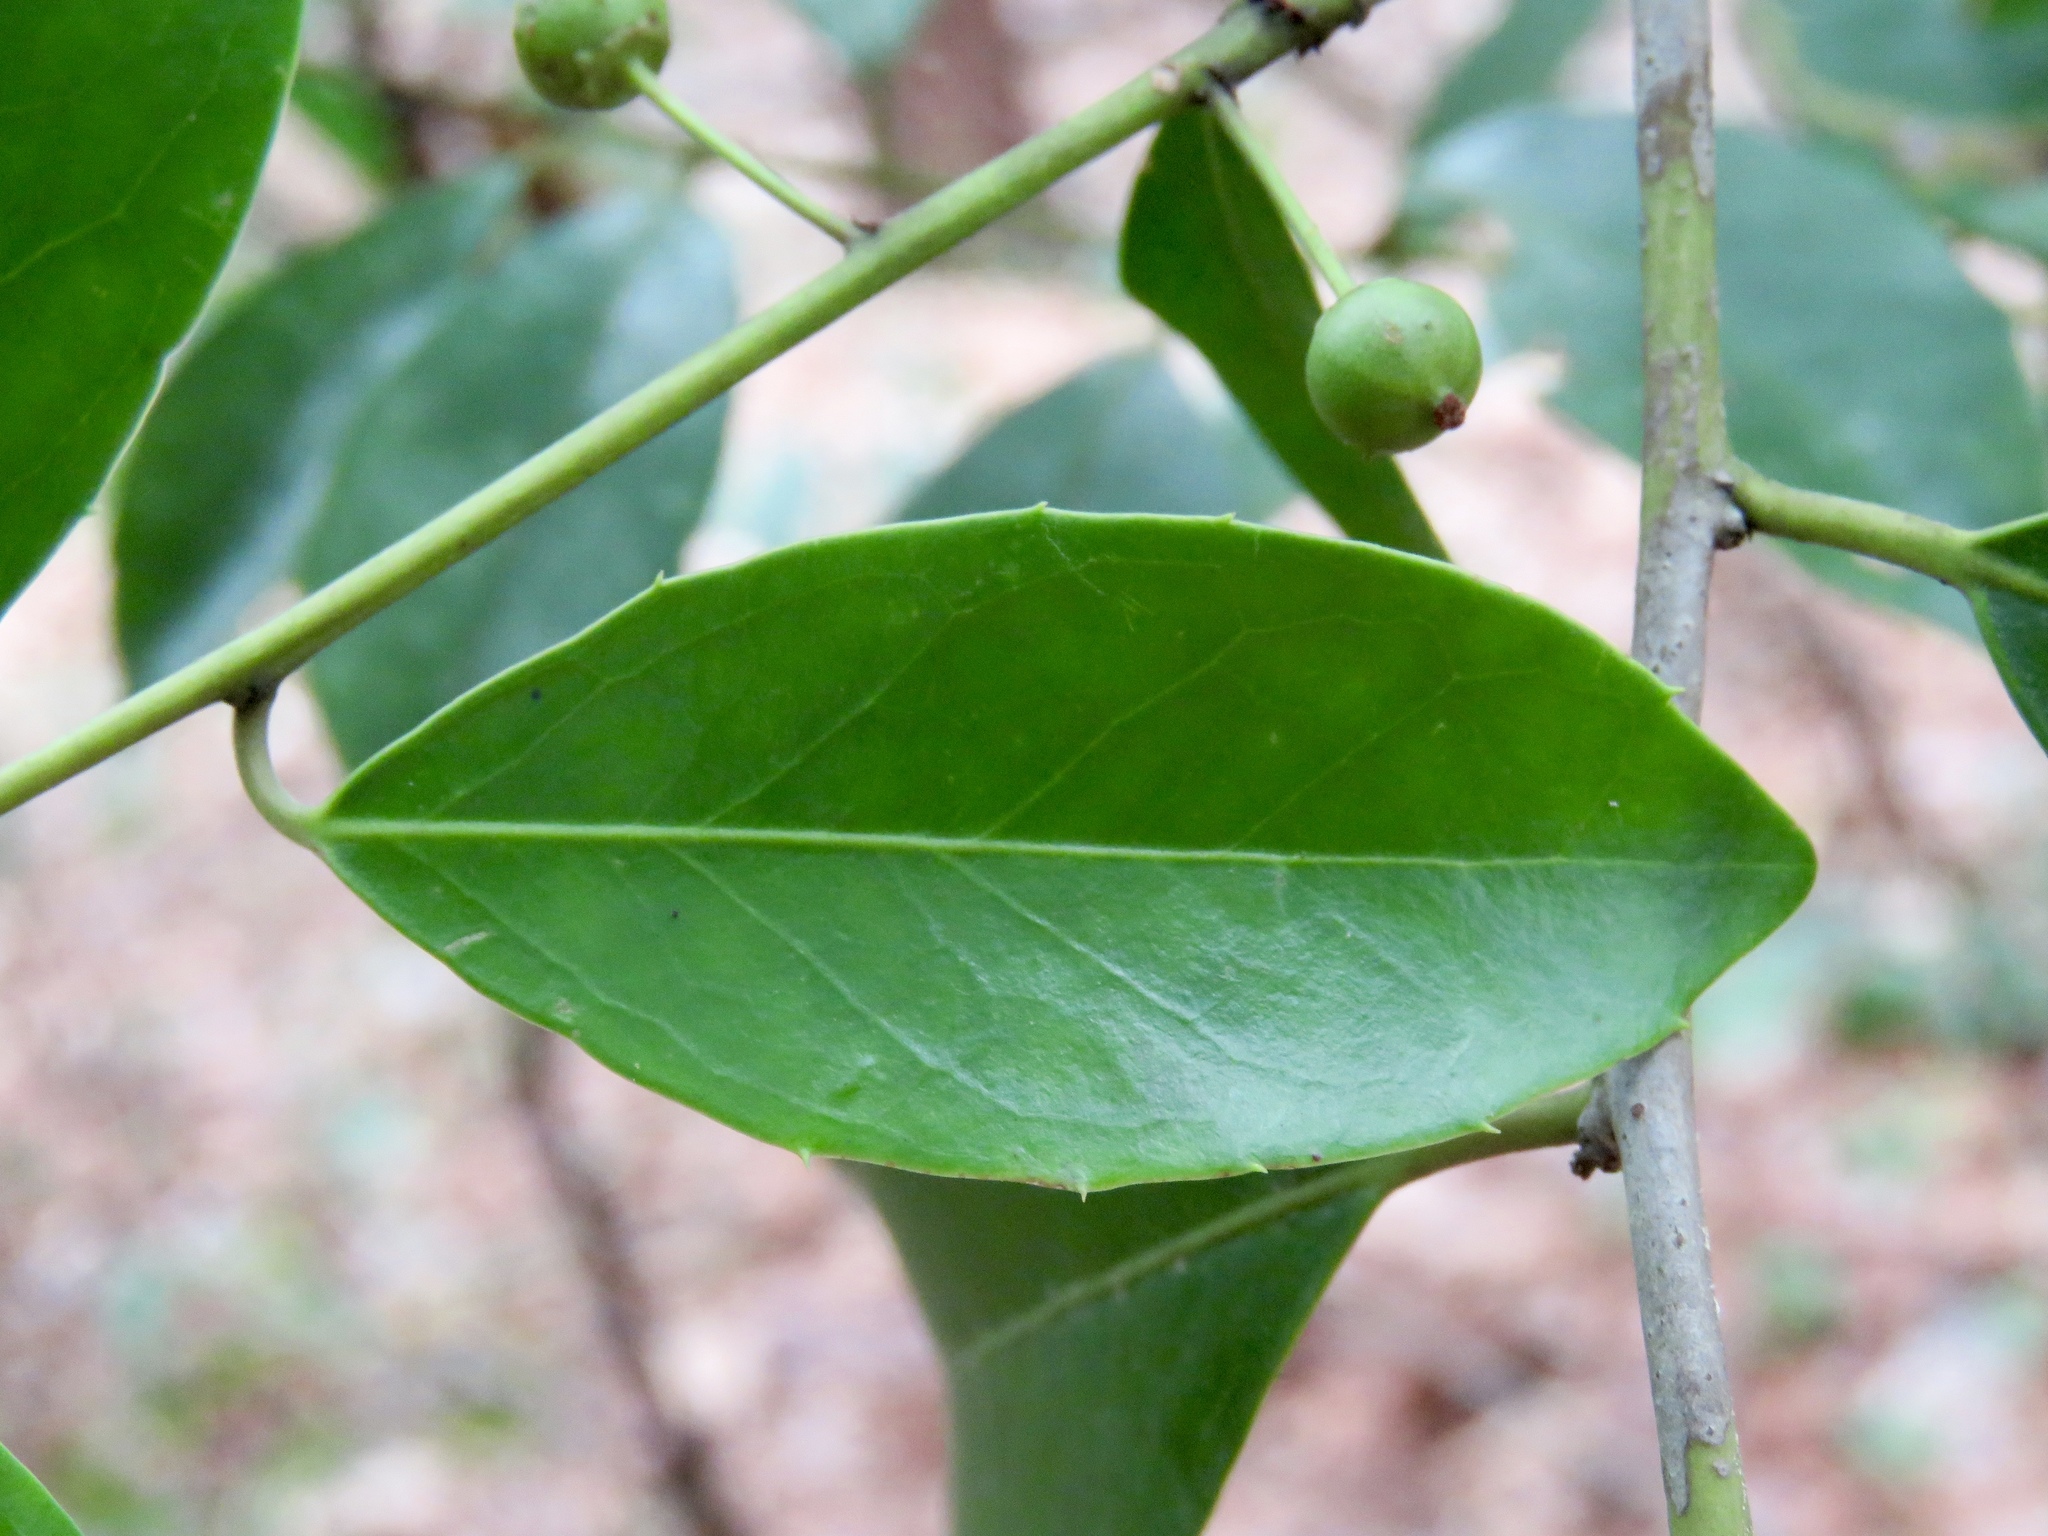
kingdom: Plantae
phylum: Tracheophyta
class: Magnoliopsida
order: Aquifoliales
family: Aquifoliaceae
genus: Ilex
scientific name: Ilex coriacea
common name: Sweet gallberry
